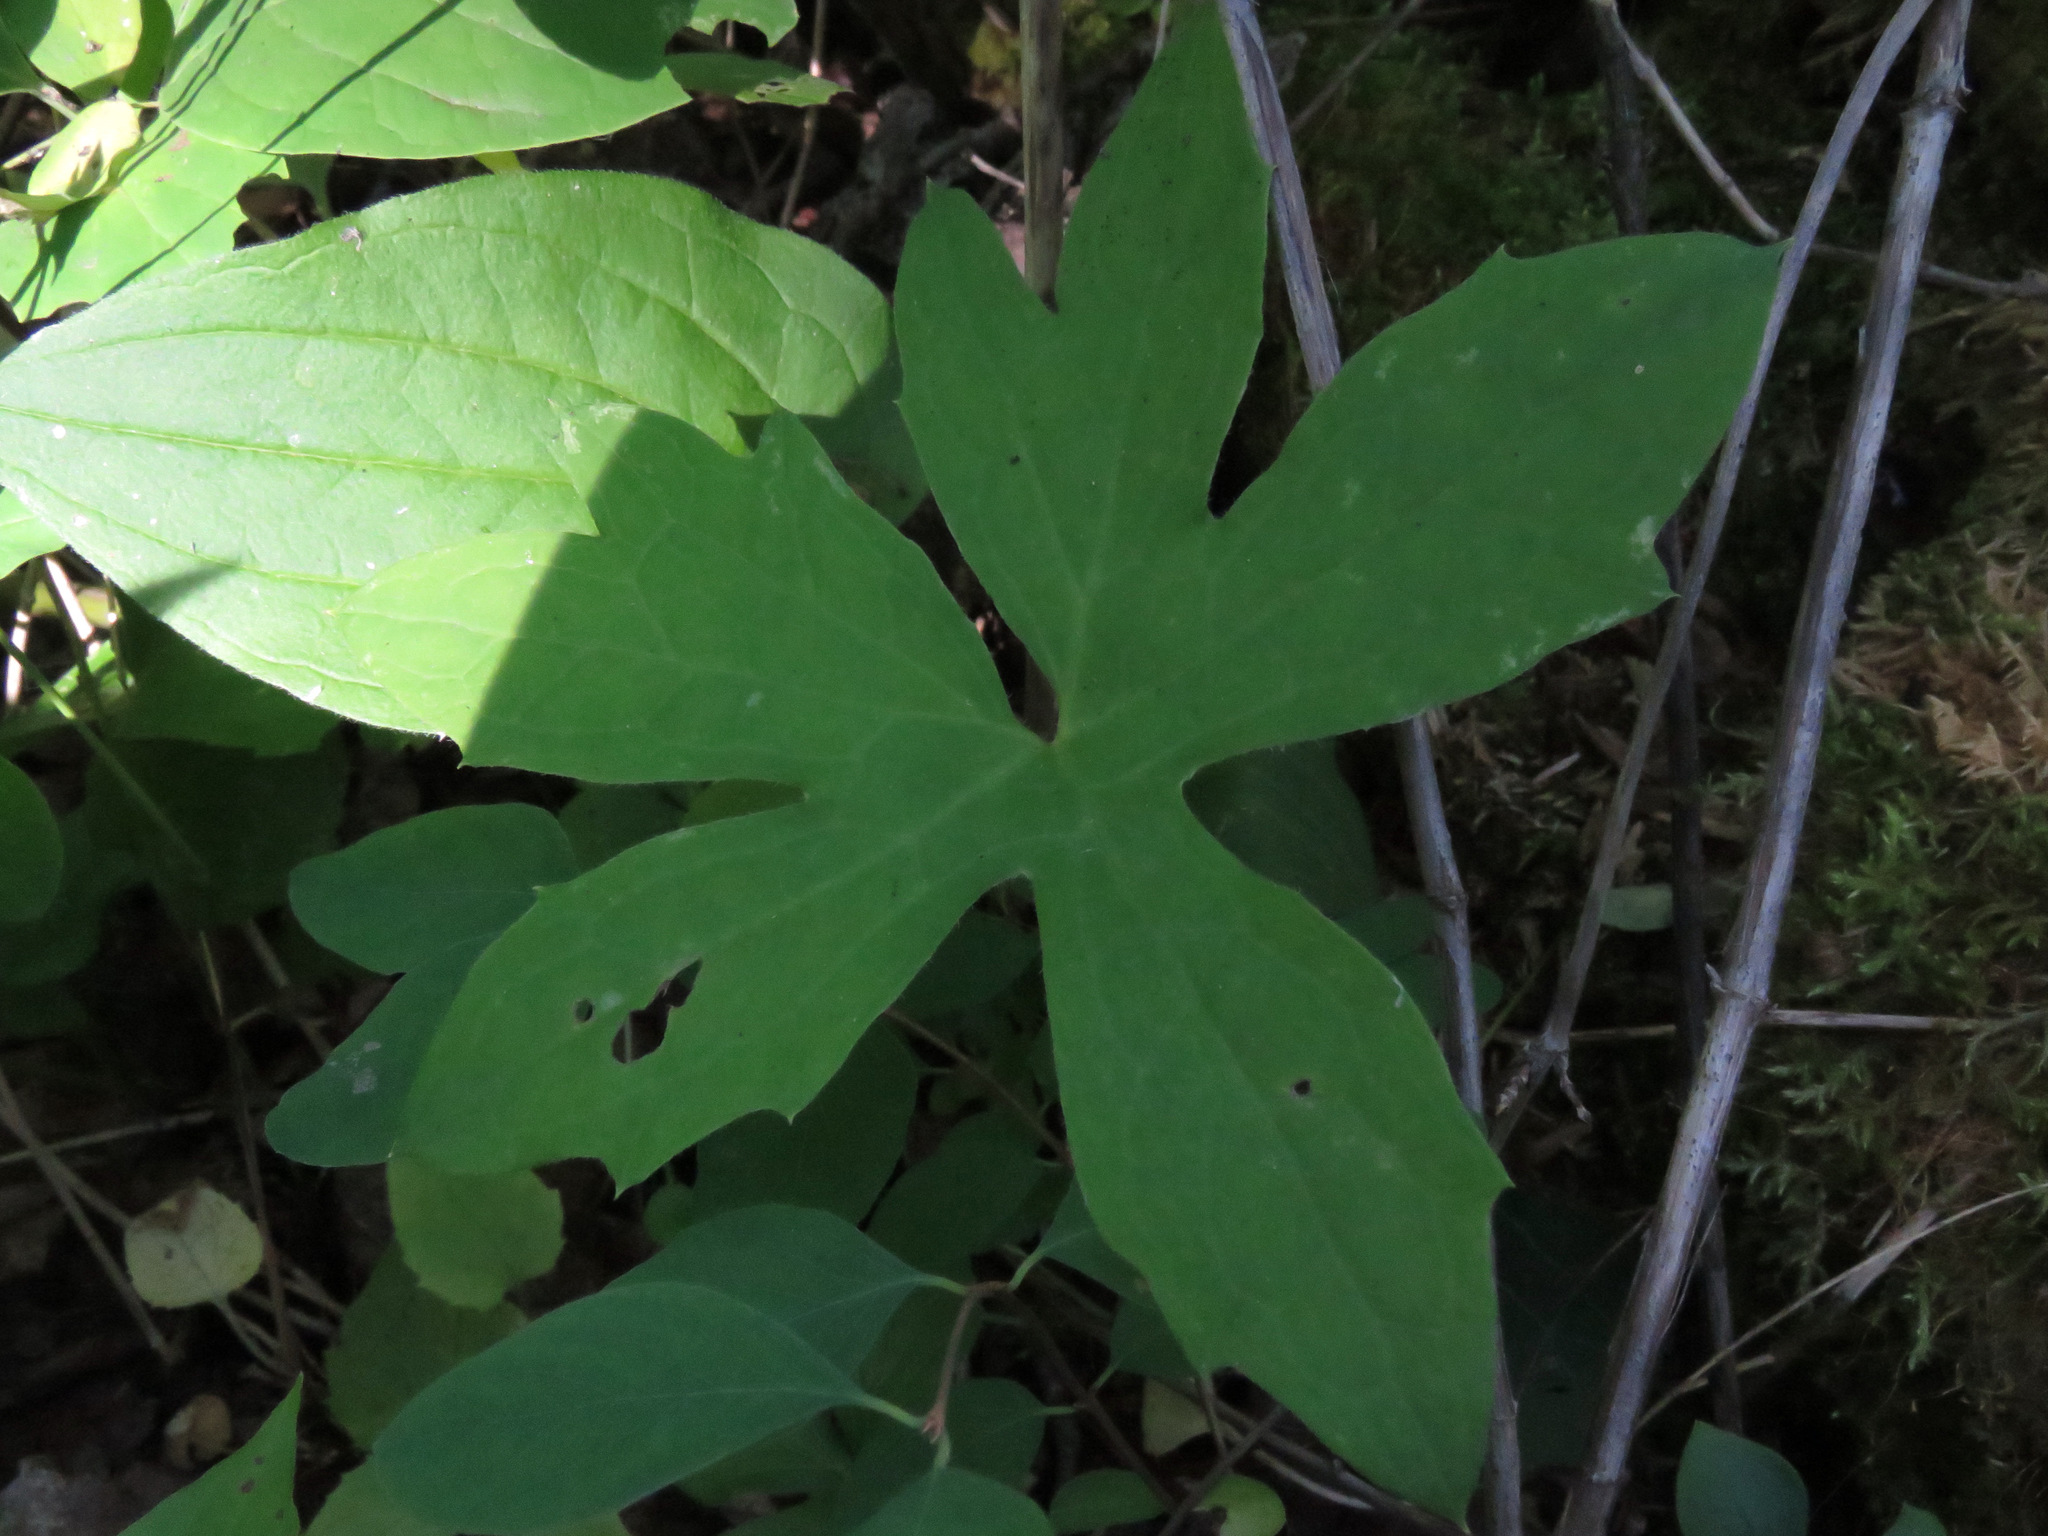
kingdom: Plantae
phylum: Tracheophyta
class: Magnoliopsida
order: Asterales
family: Asteraceae
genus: Petasites
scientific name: Petasites frigidus
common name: Arctic butterbur
